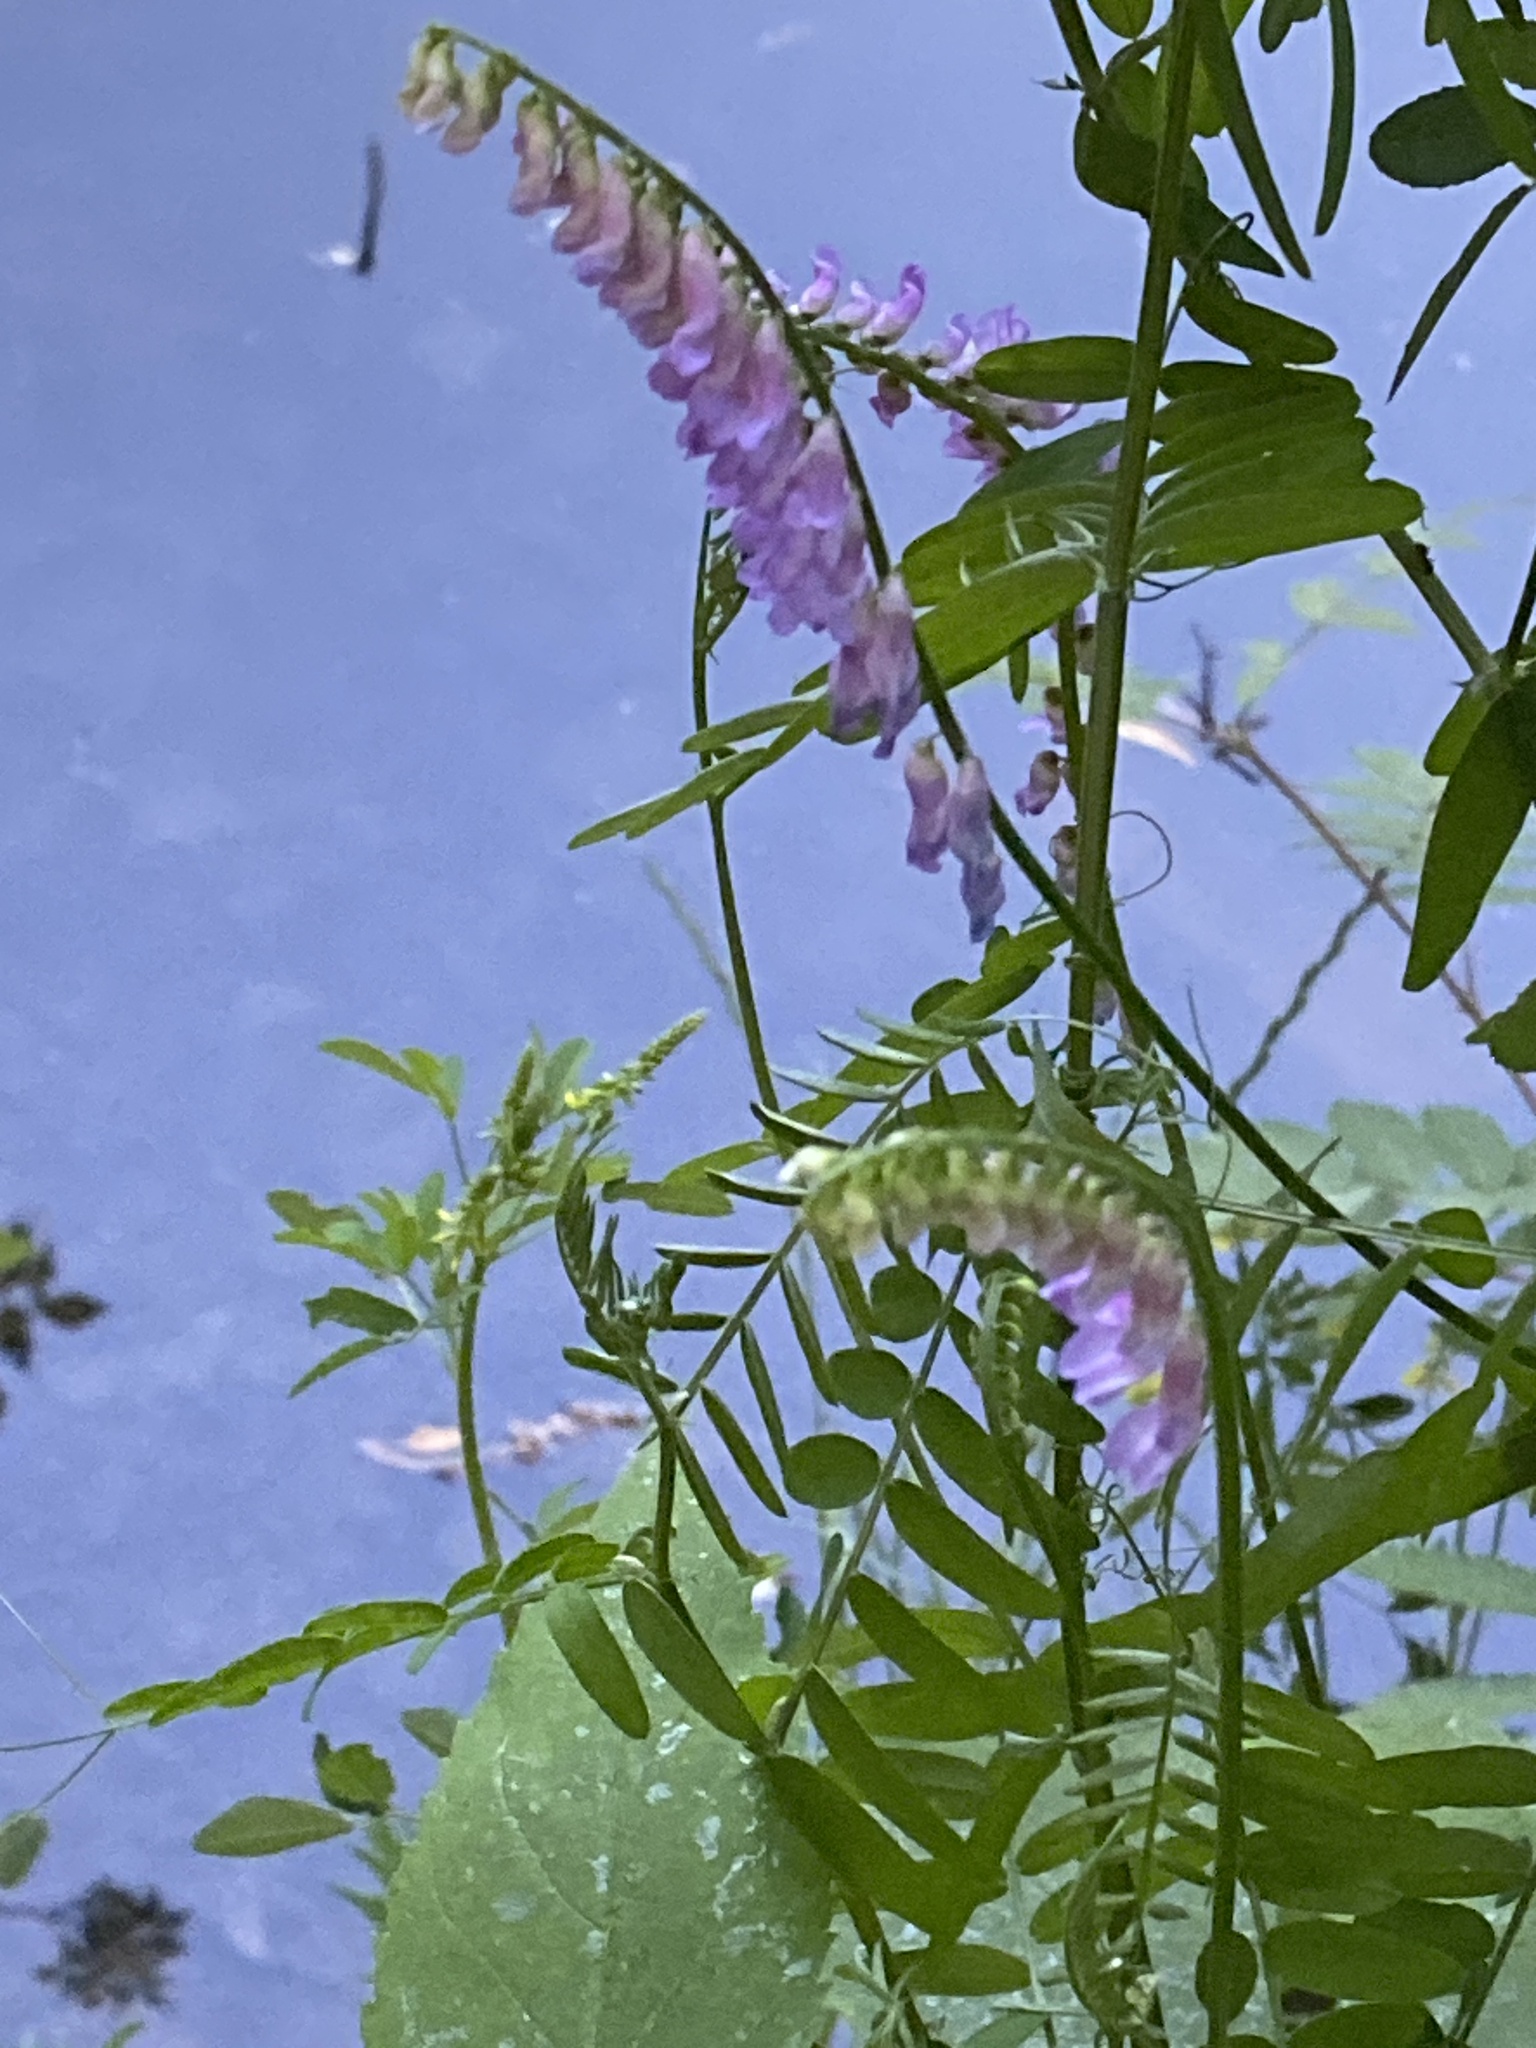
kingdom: Plantae
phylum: Tracheophyta
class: Magnoliopsida
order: Fabales
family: Fabaceae
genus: Vicia
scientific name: Vicia cracca
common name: Bird vetch
